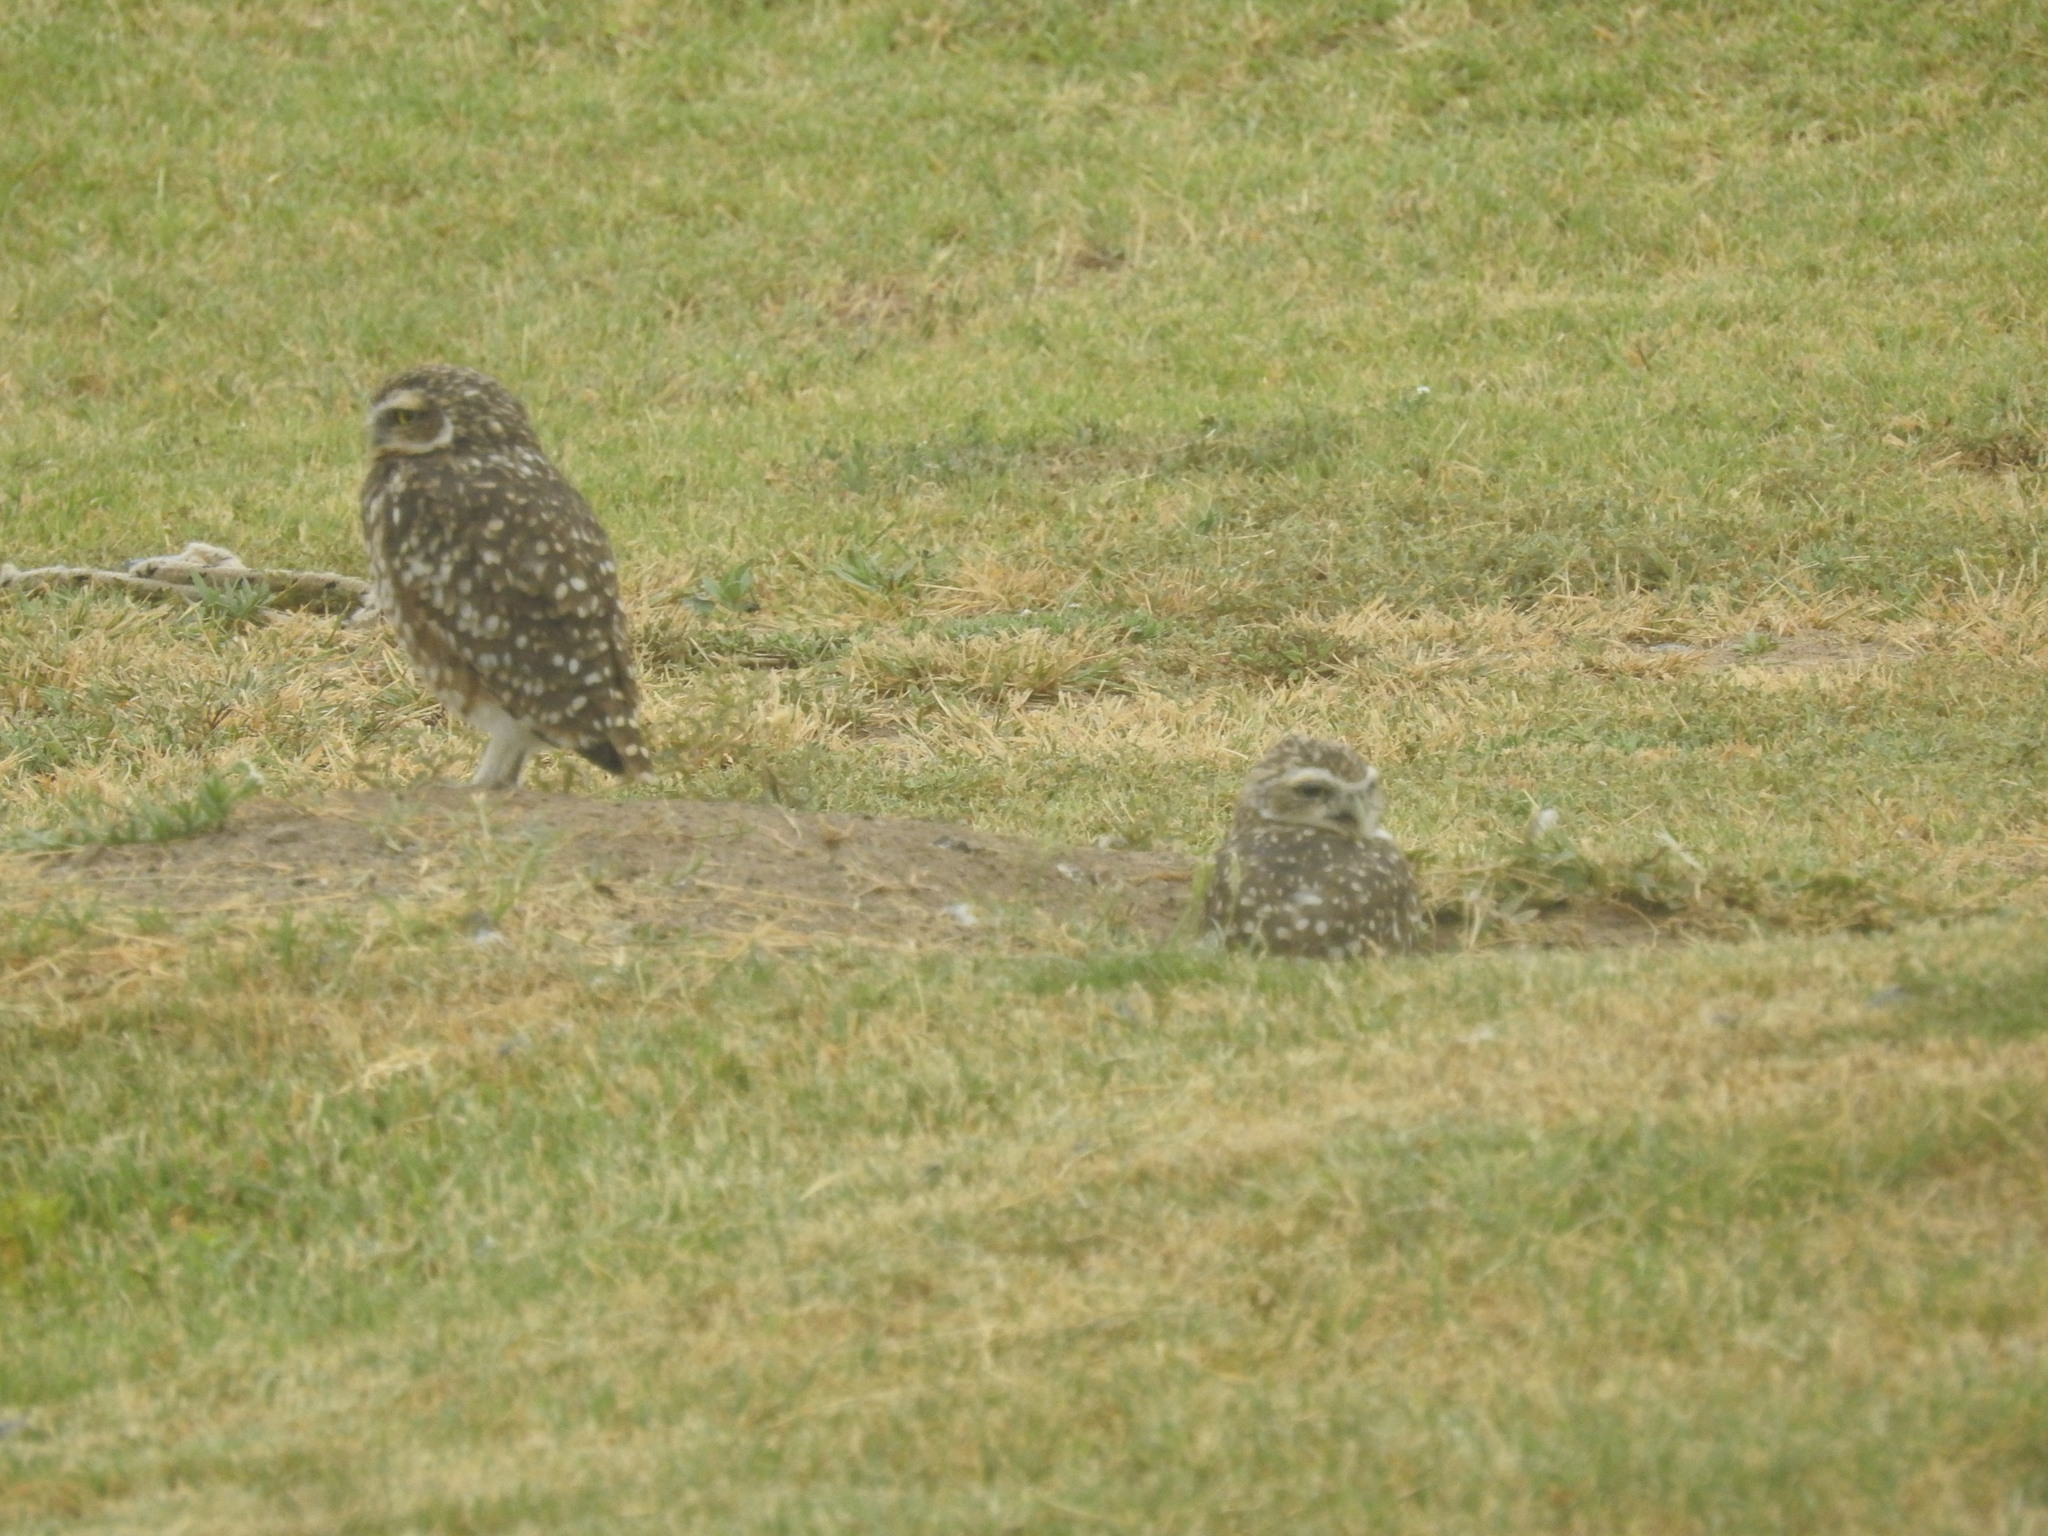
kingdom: Animalia
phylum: Chordata
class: Aves
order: Strigiformes
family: Strigidae
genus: Athene
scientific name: Athene cunicularia
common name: Burrowing owl
